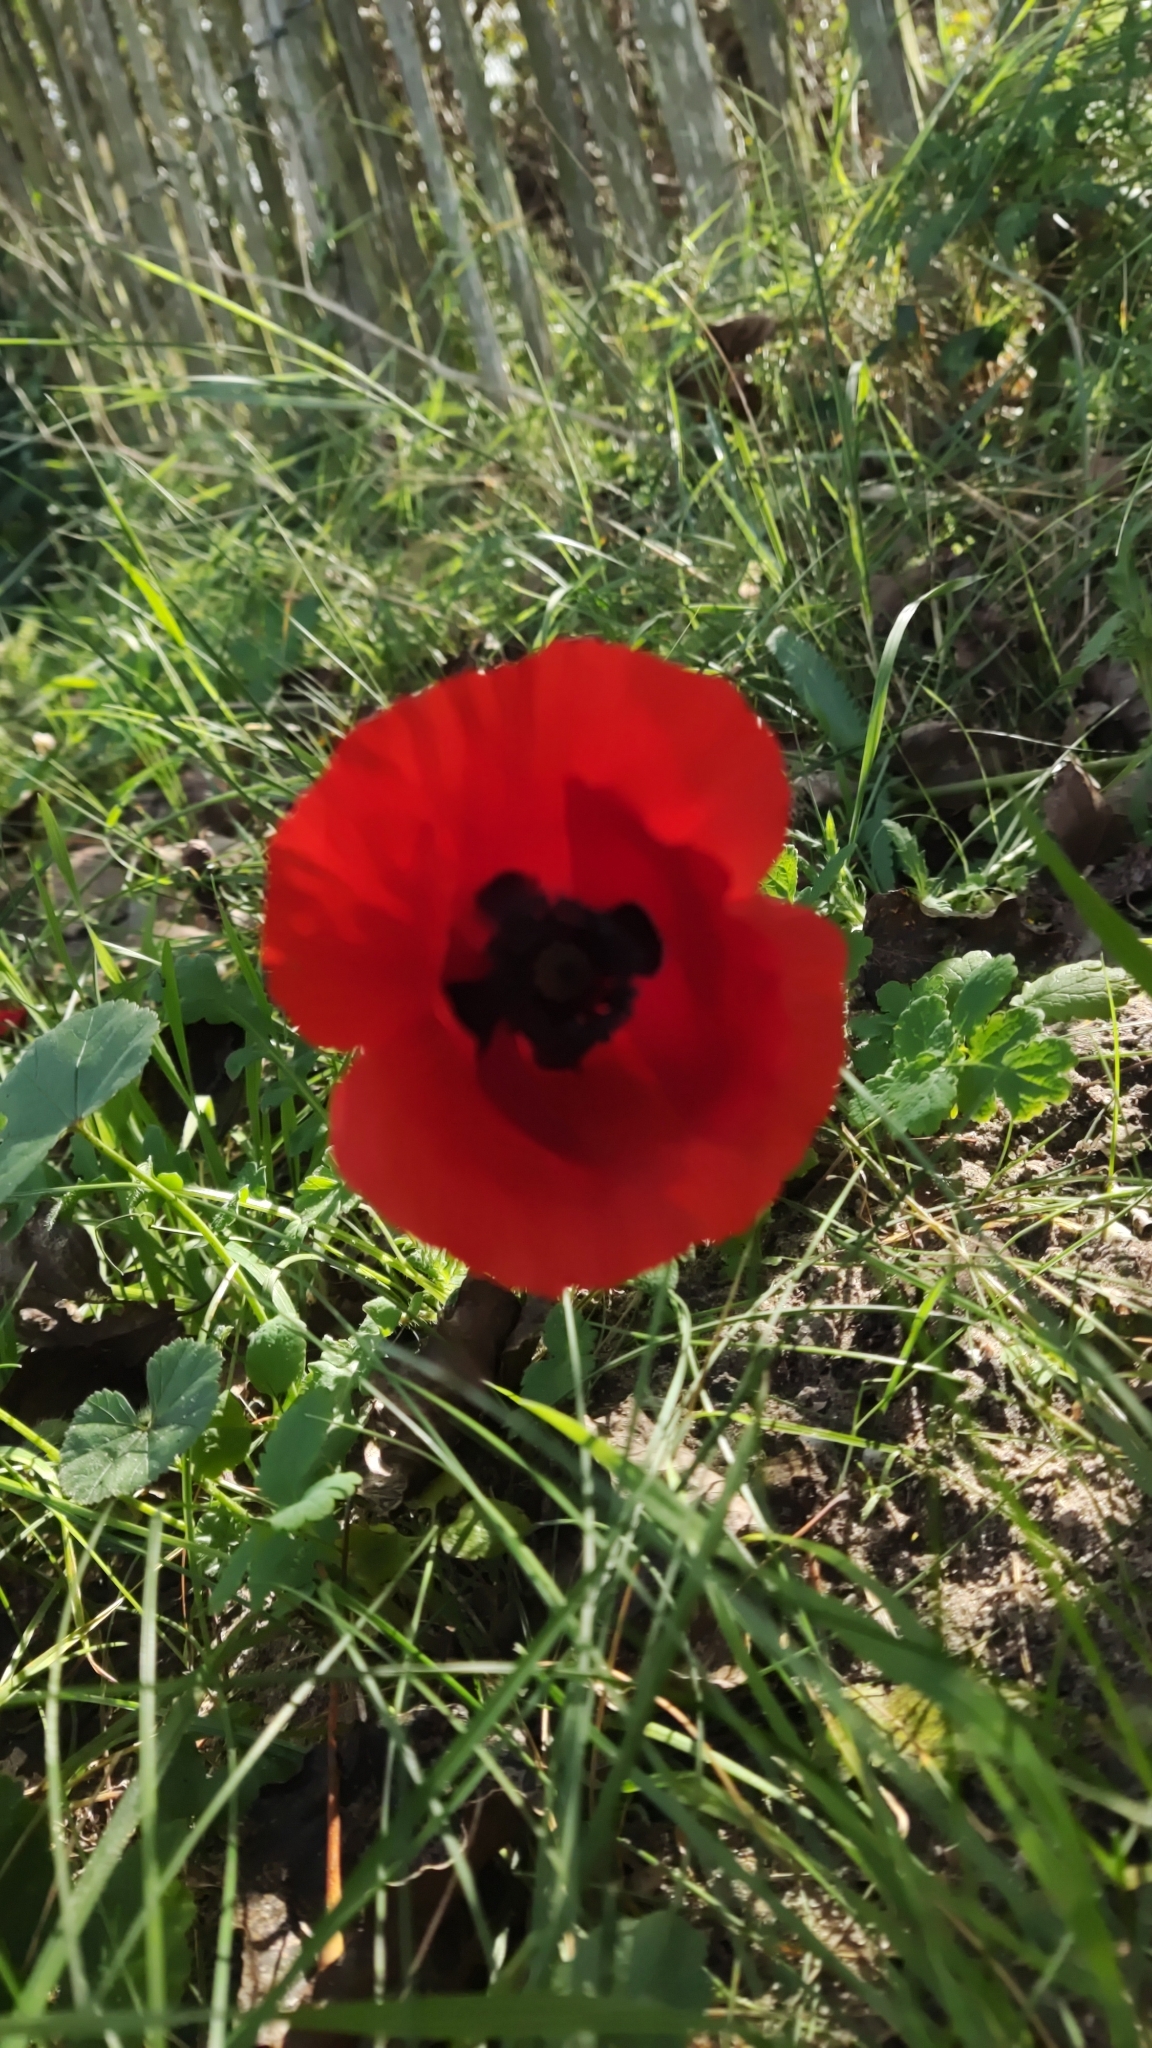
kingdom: Plantae
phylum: Tracheophyta
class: Magnoliopsida
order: Ranunculales
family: Papaveraceae
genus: Papaver
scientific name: Papaver rhoeas
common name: Corn poppy
